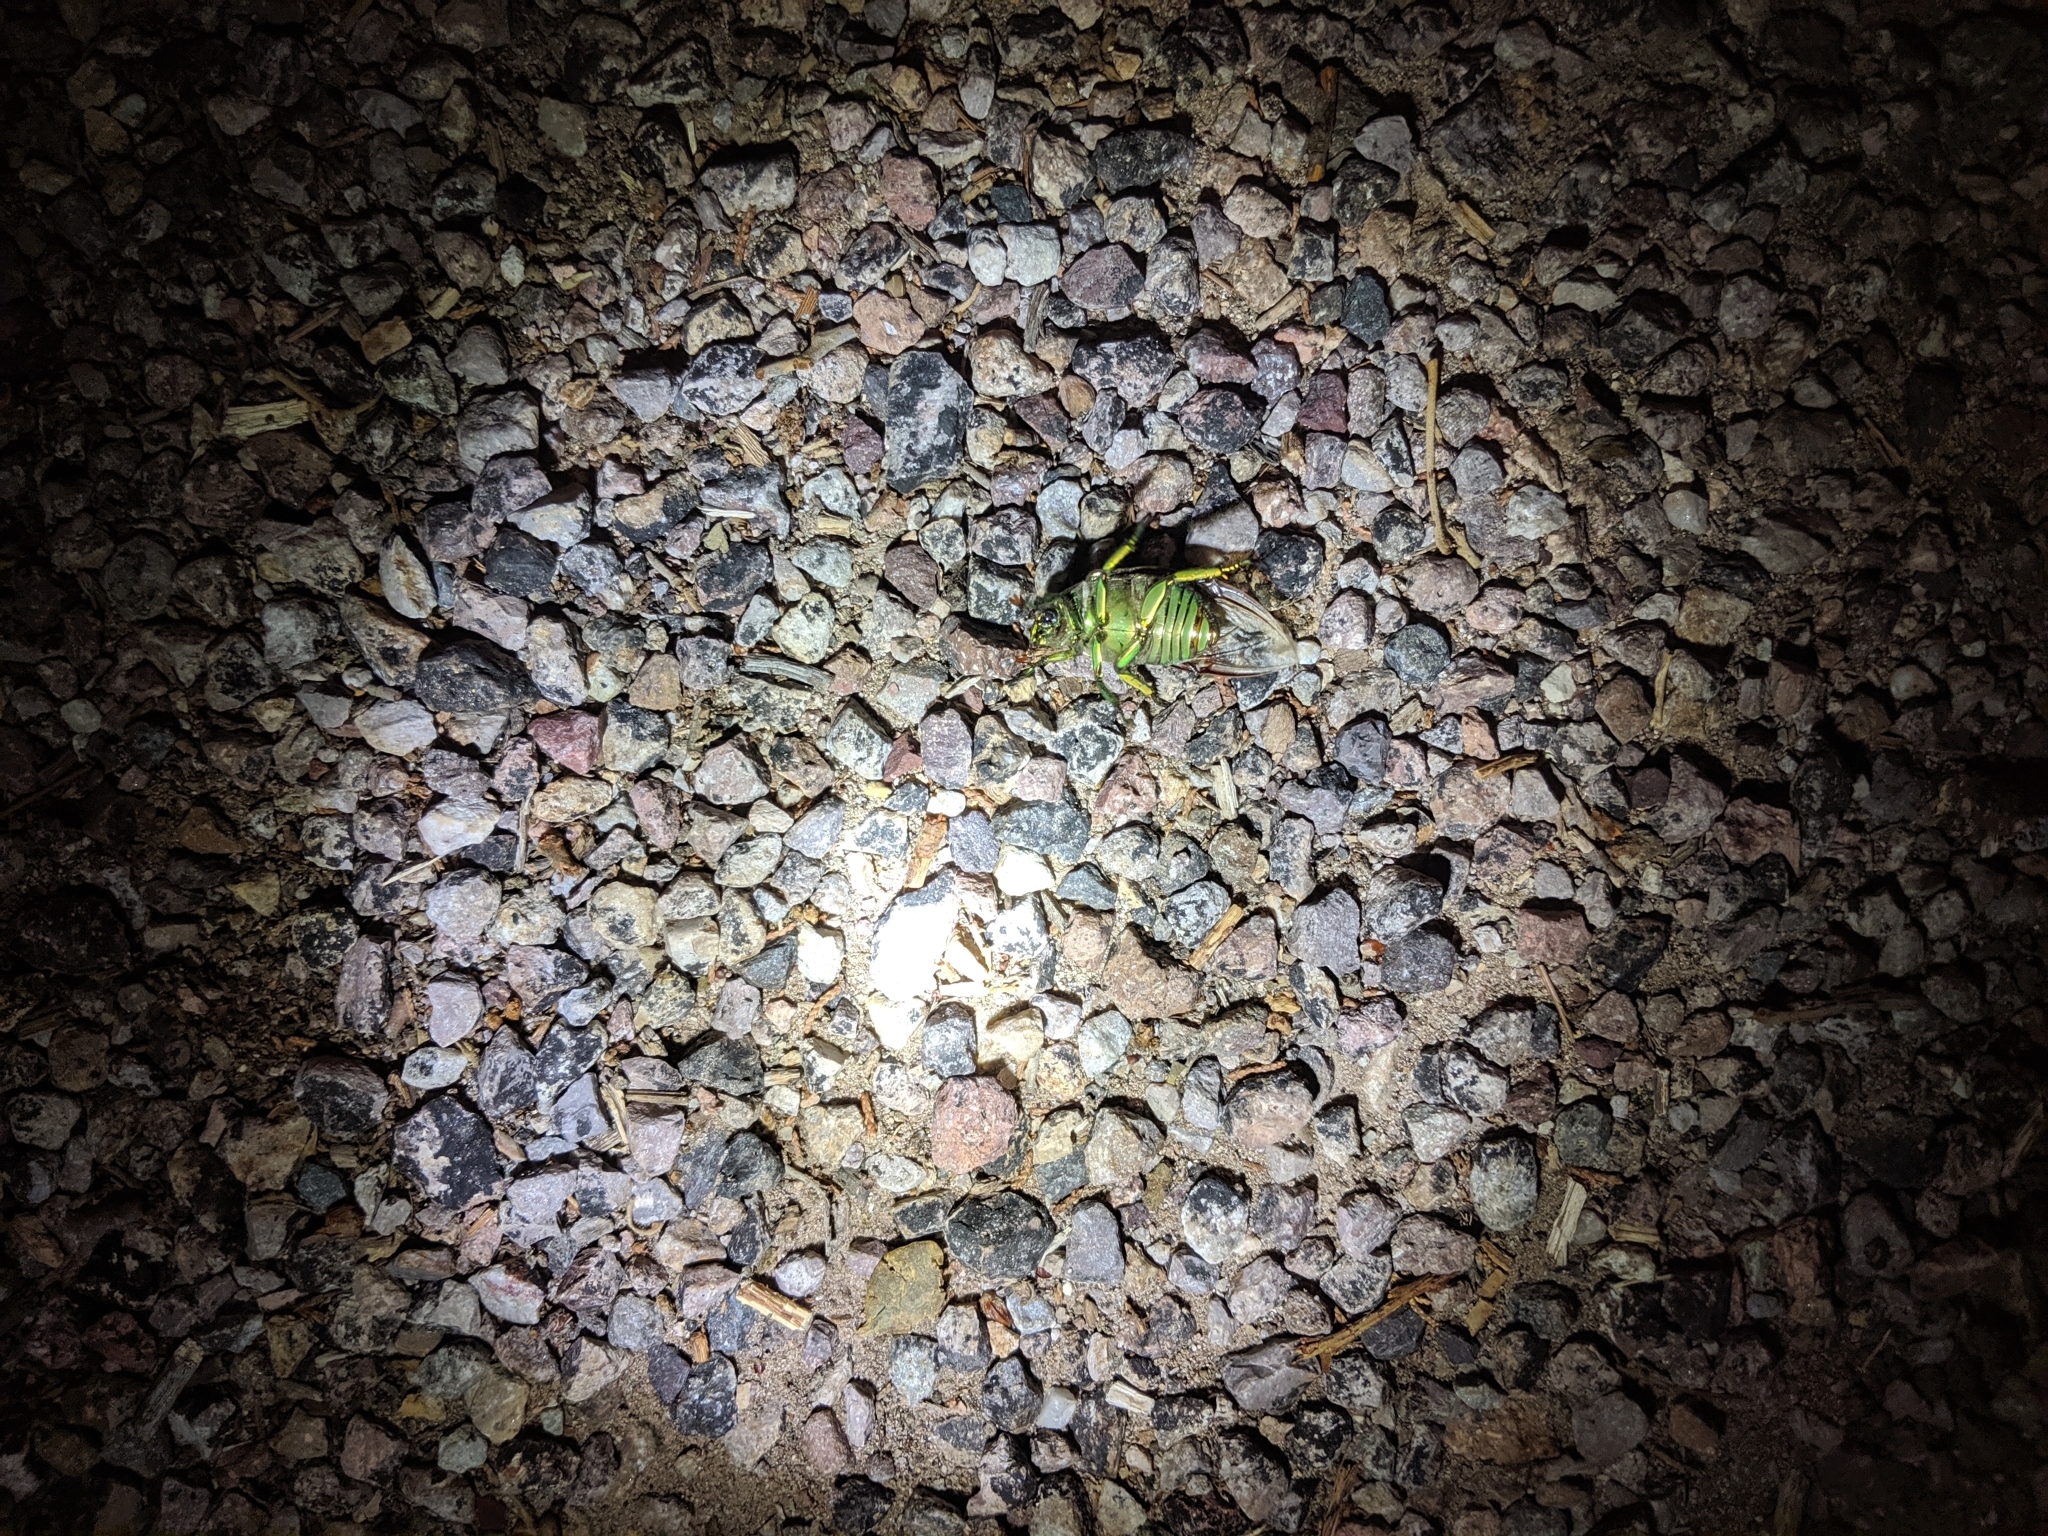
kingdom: Animalia
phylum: Arthropoda
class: Insecta
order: Coleoptera
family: Scarabaeidae
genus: Chrysina
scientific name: Chrysina gloriosa
